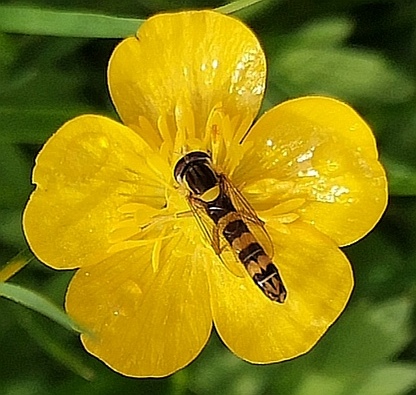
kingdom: Animalia
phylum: Arthropoda
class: Insecta
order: Diptera
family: Syrphidae
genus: Sphaerophoria
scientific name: Sphaerophoria scripta
